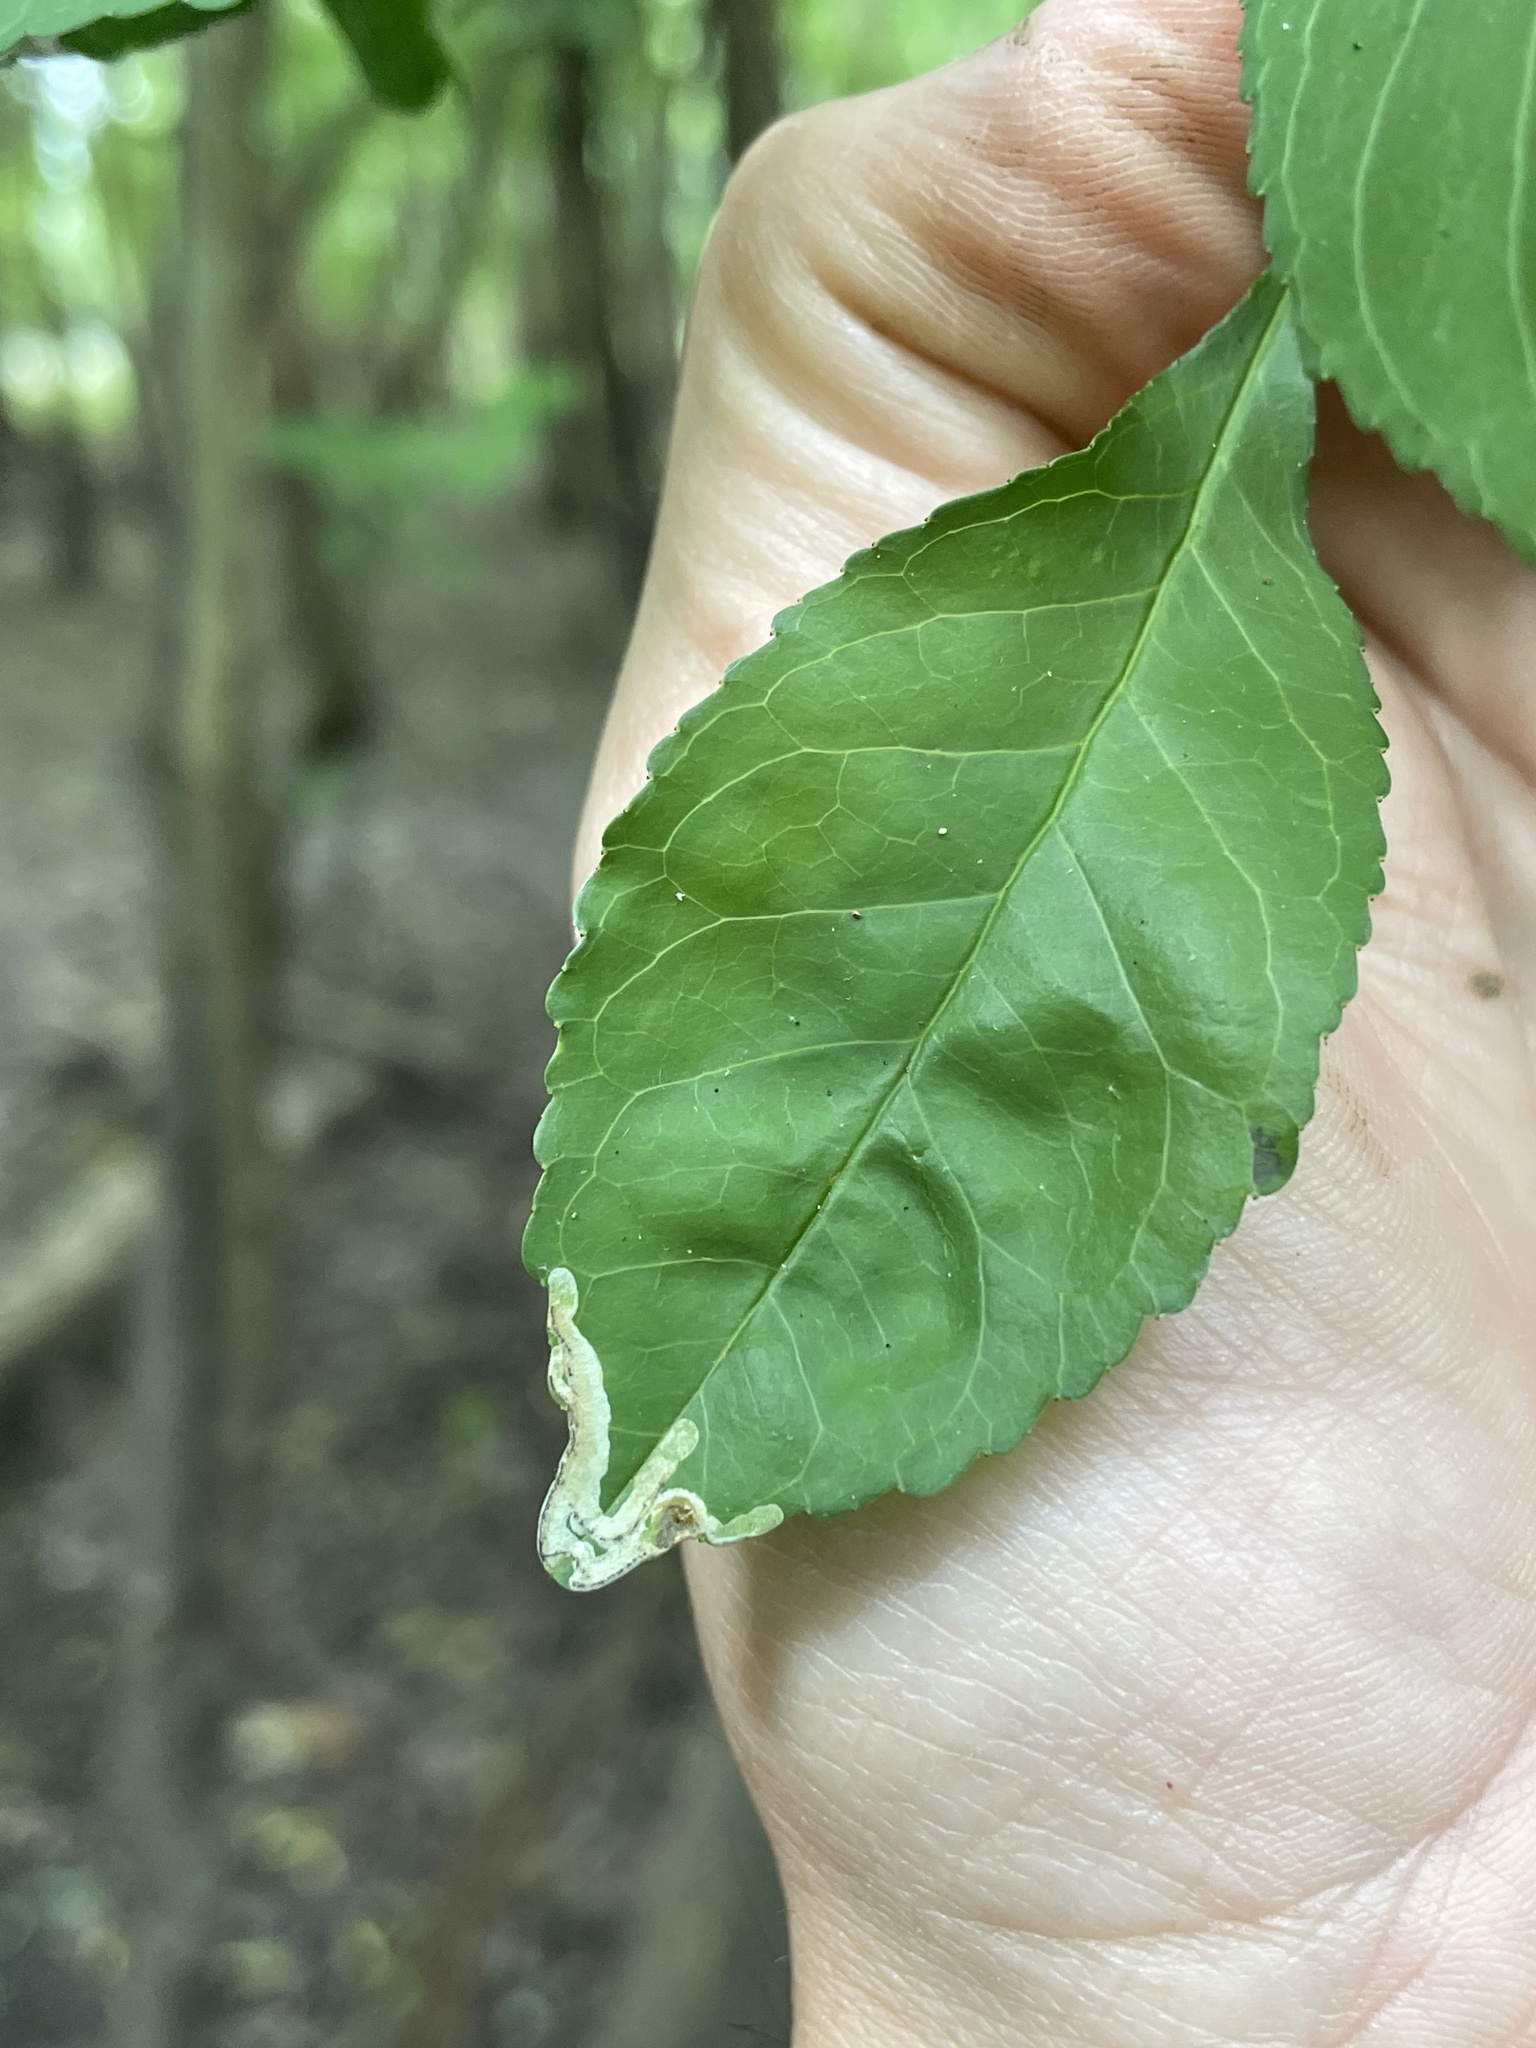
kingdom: Animalia
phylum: Arthropoda
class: Insecta
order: Diptera
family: Agromyzidae
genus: Phytomyza
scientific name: Phytomyza ditmani
